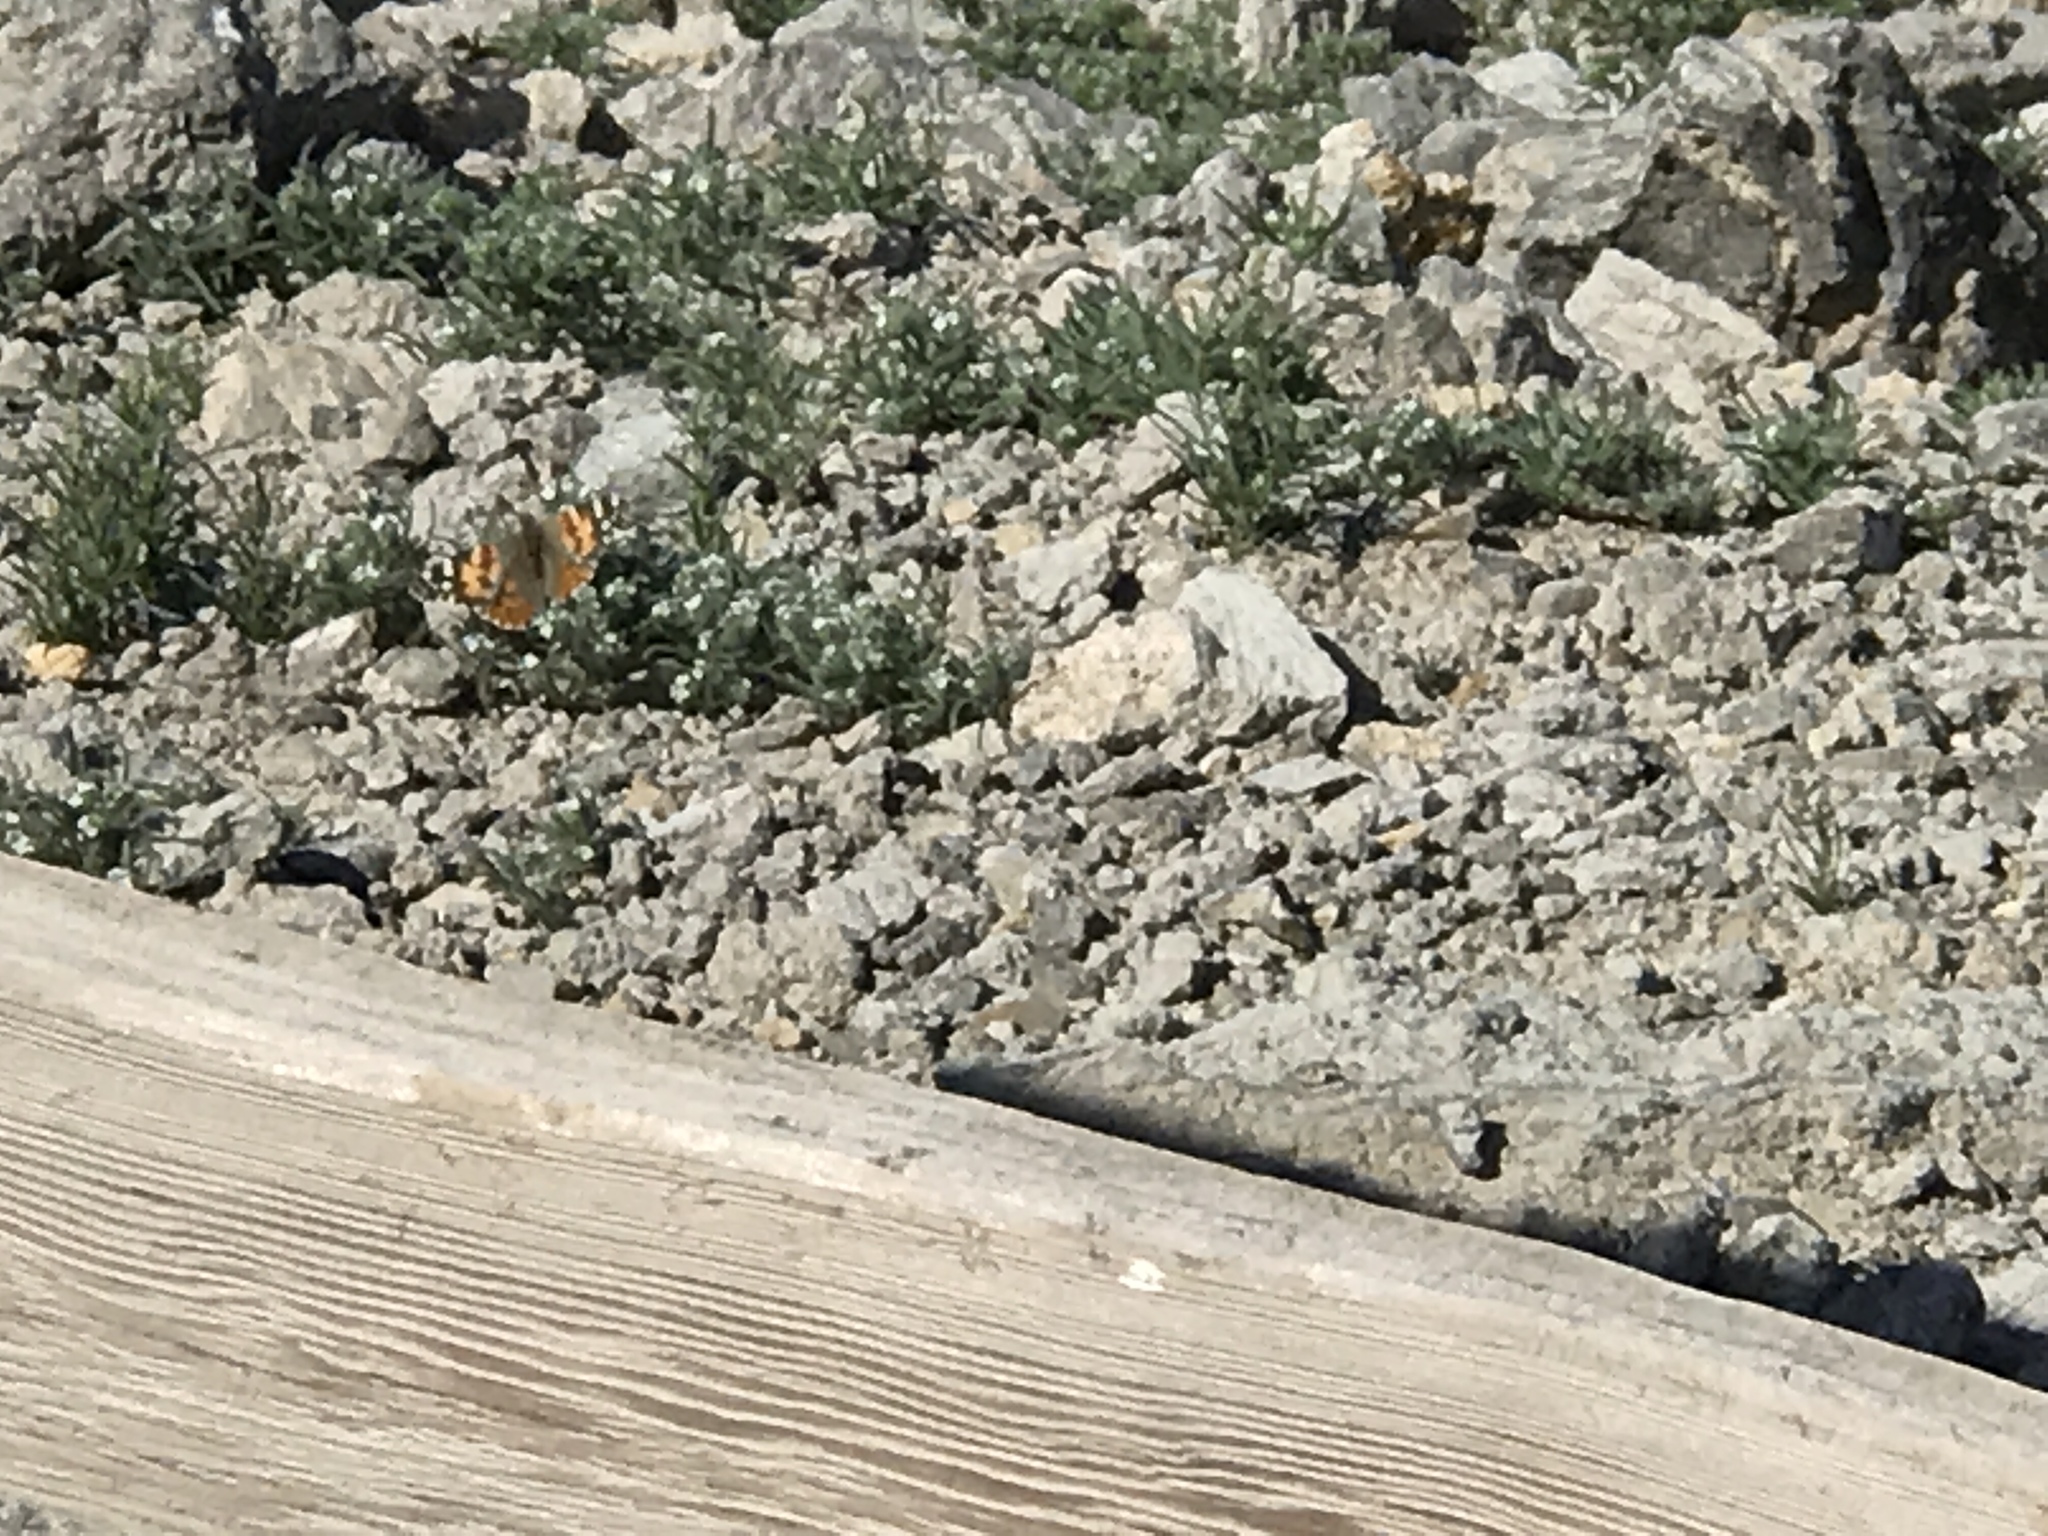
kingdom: Animalia
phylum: Arthropoda
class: Insecta
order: Lepidoptera
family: Nymphalidae
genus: Vanessa
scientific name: Vanessa cardui
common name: Painted lady
